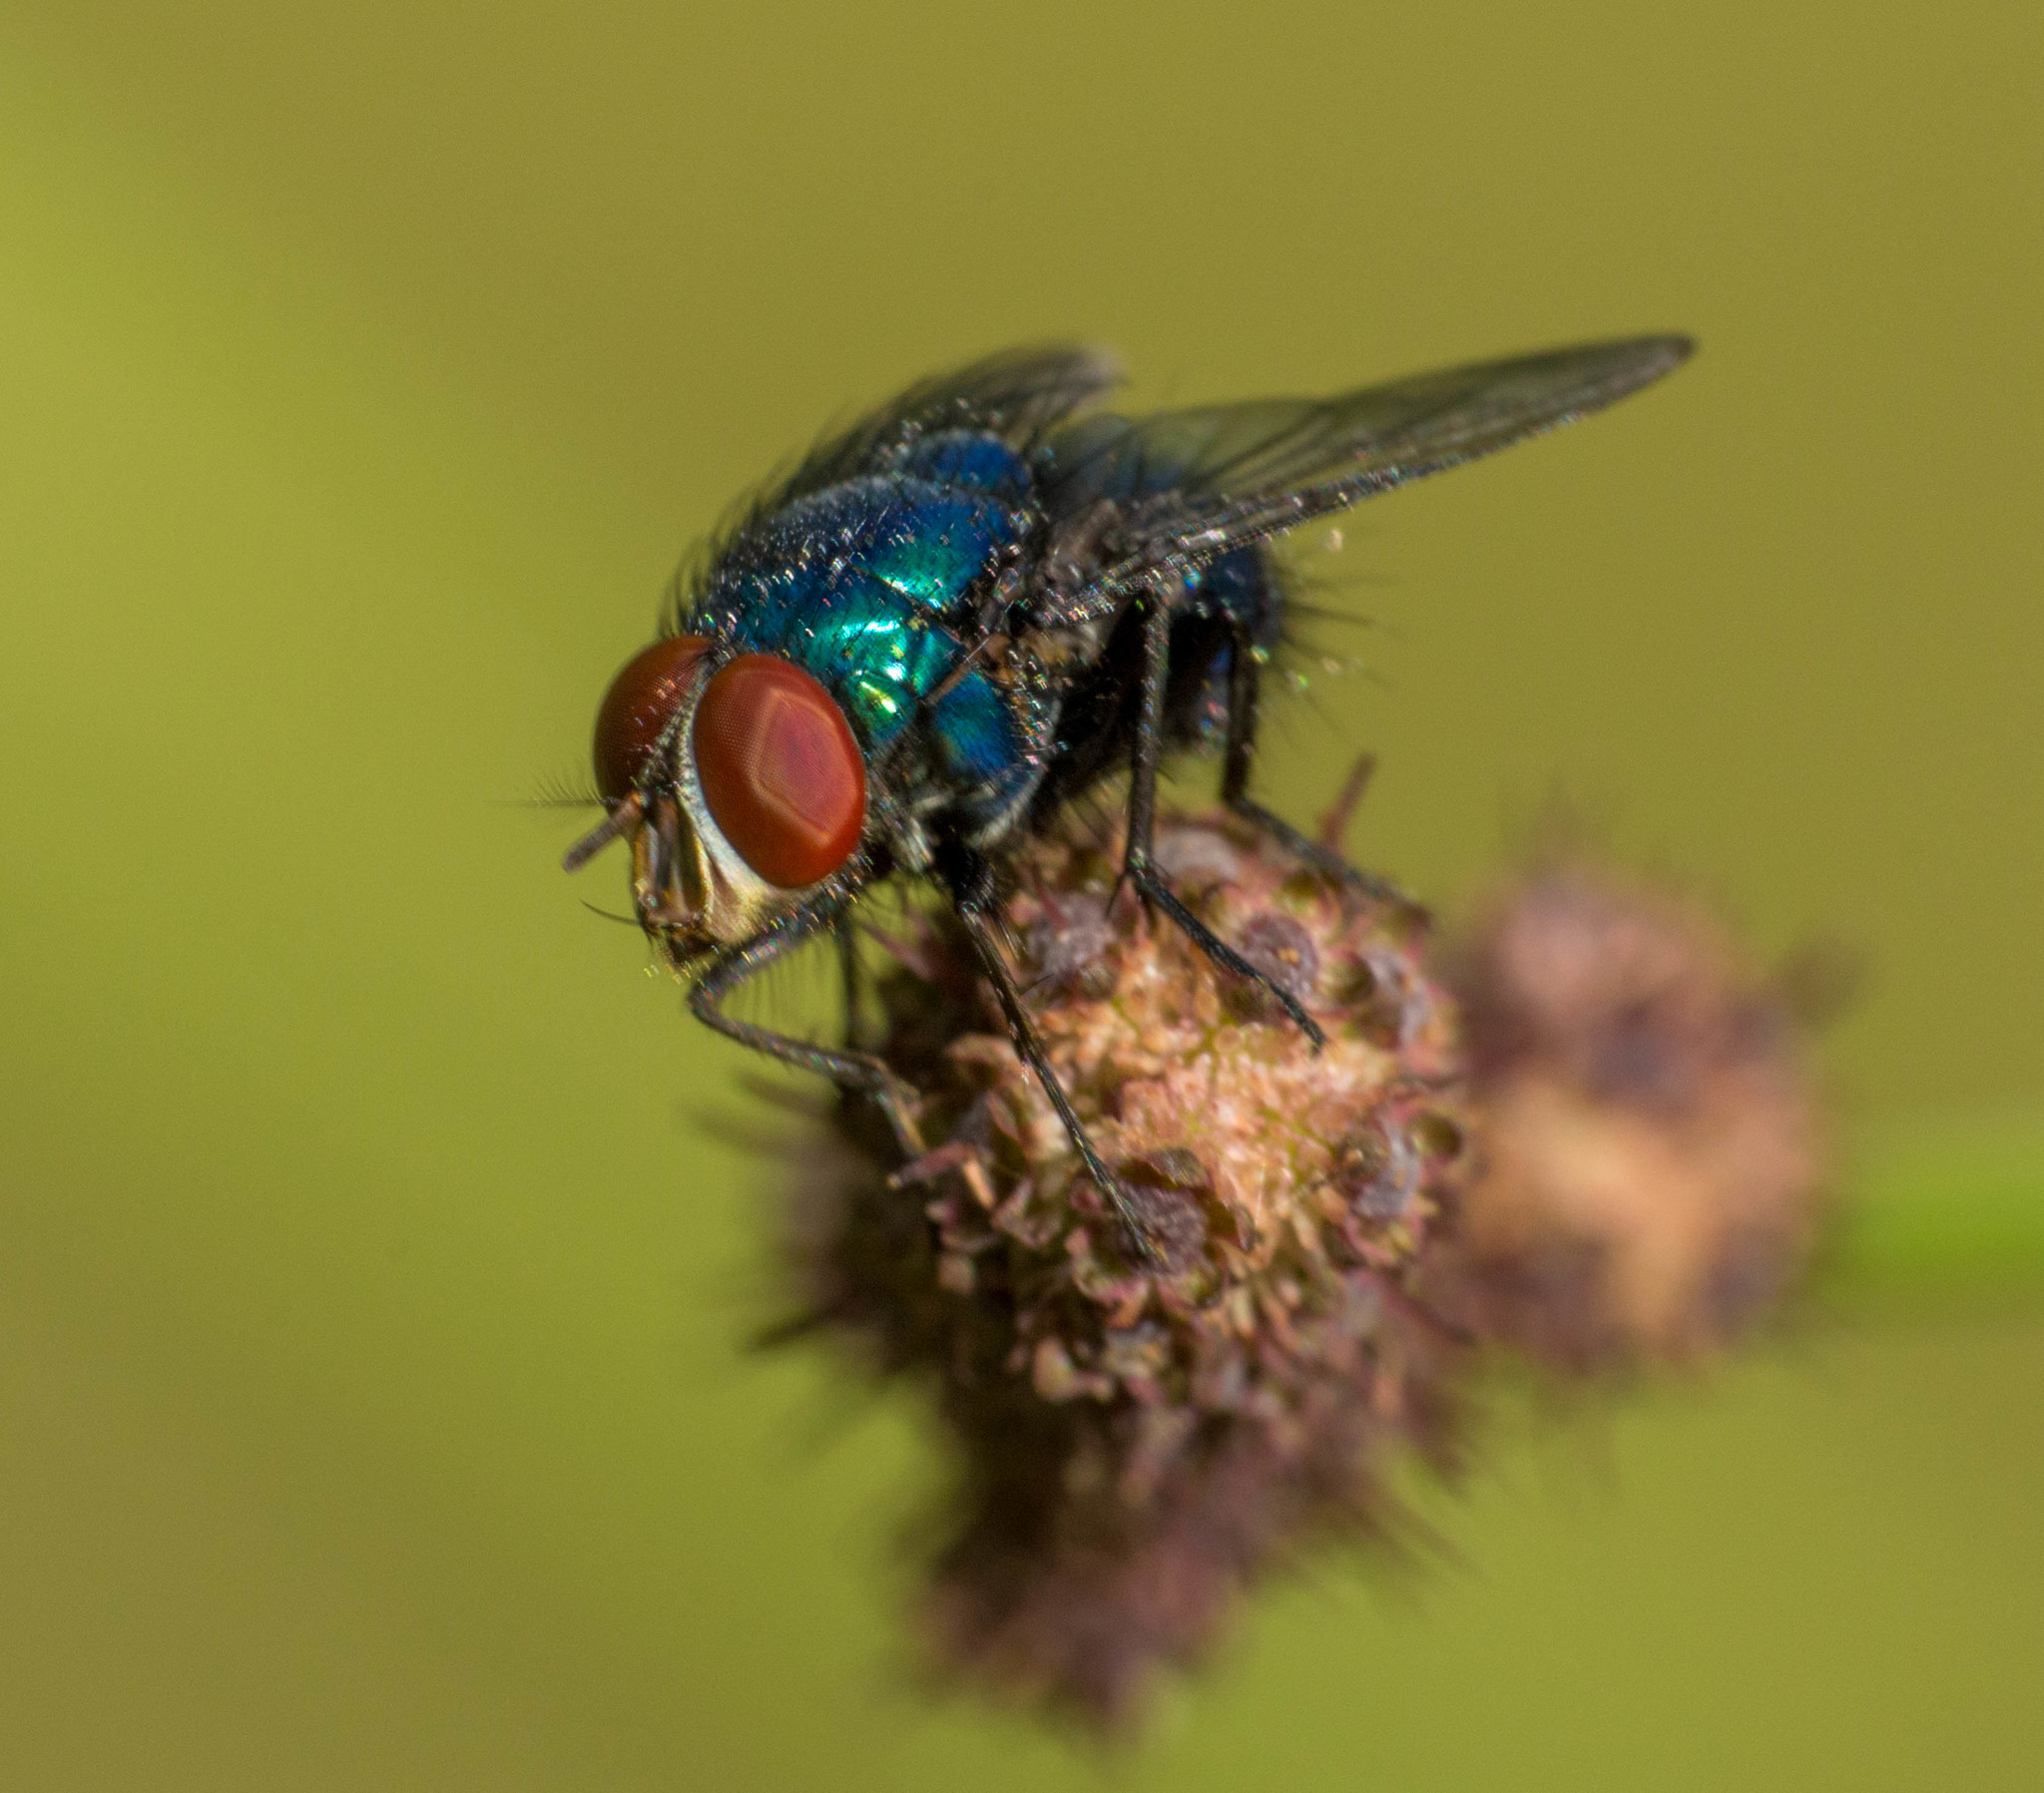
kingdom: Animalia
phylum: Arthropoda
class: Insecta
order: Diptera
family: Calliphoridae
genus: Lucilia
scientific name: Lucilia eximia
